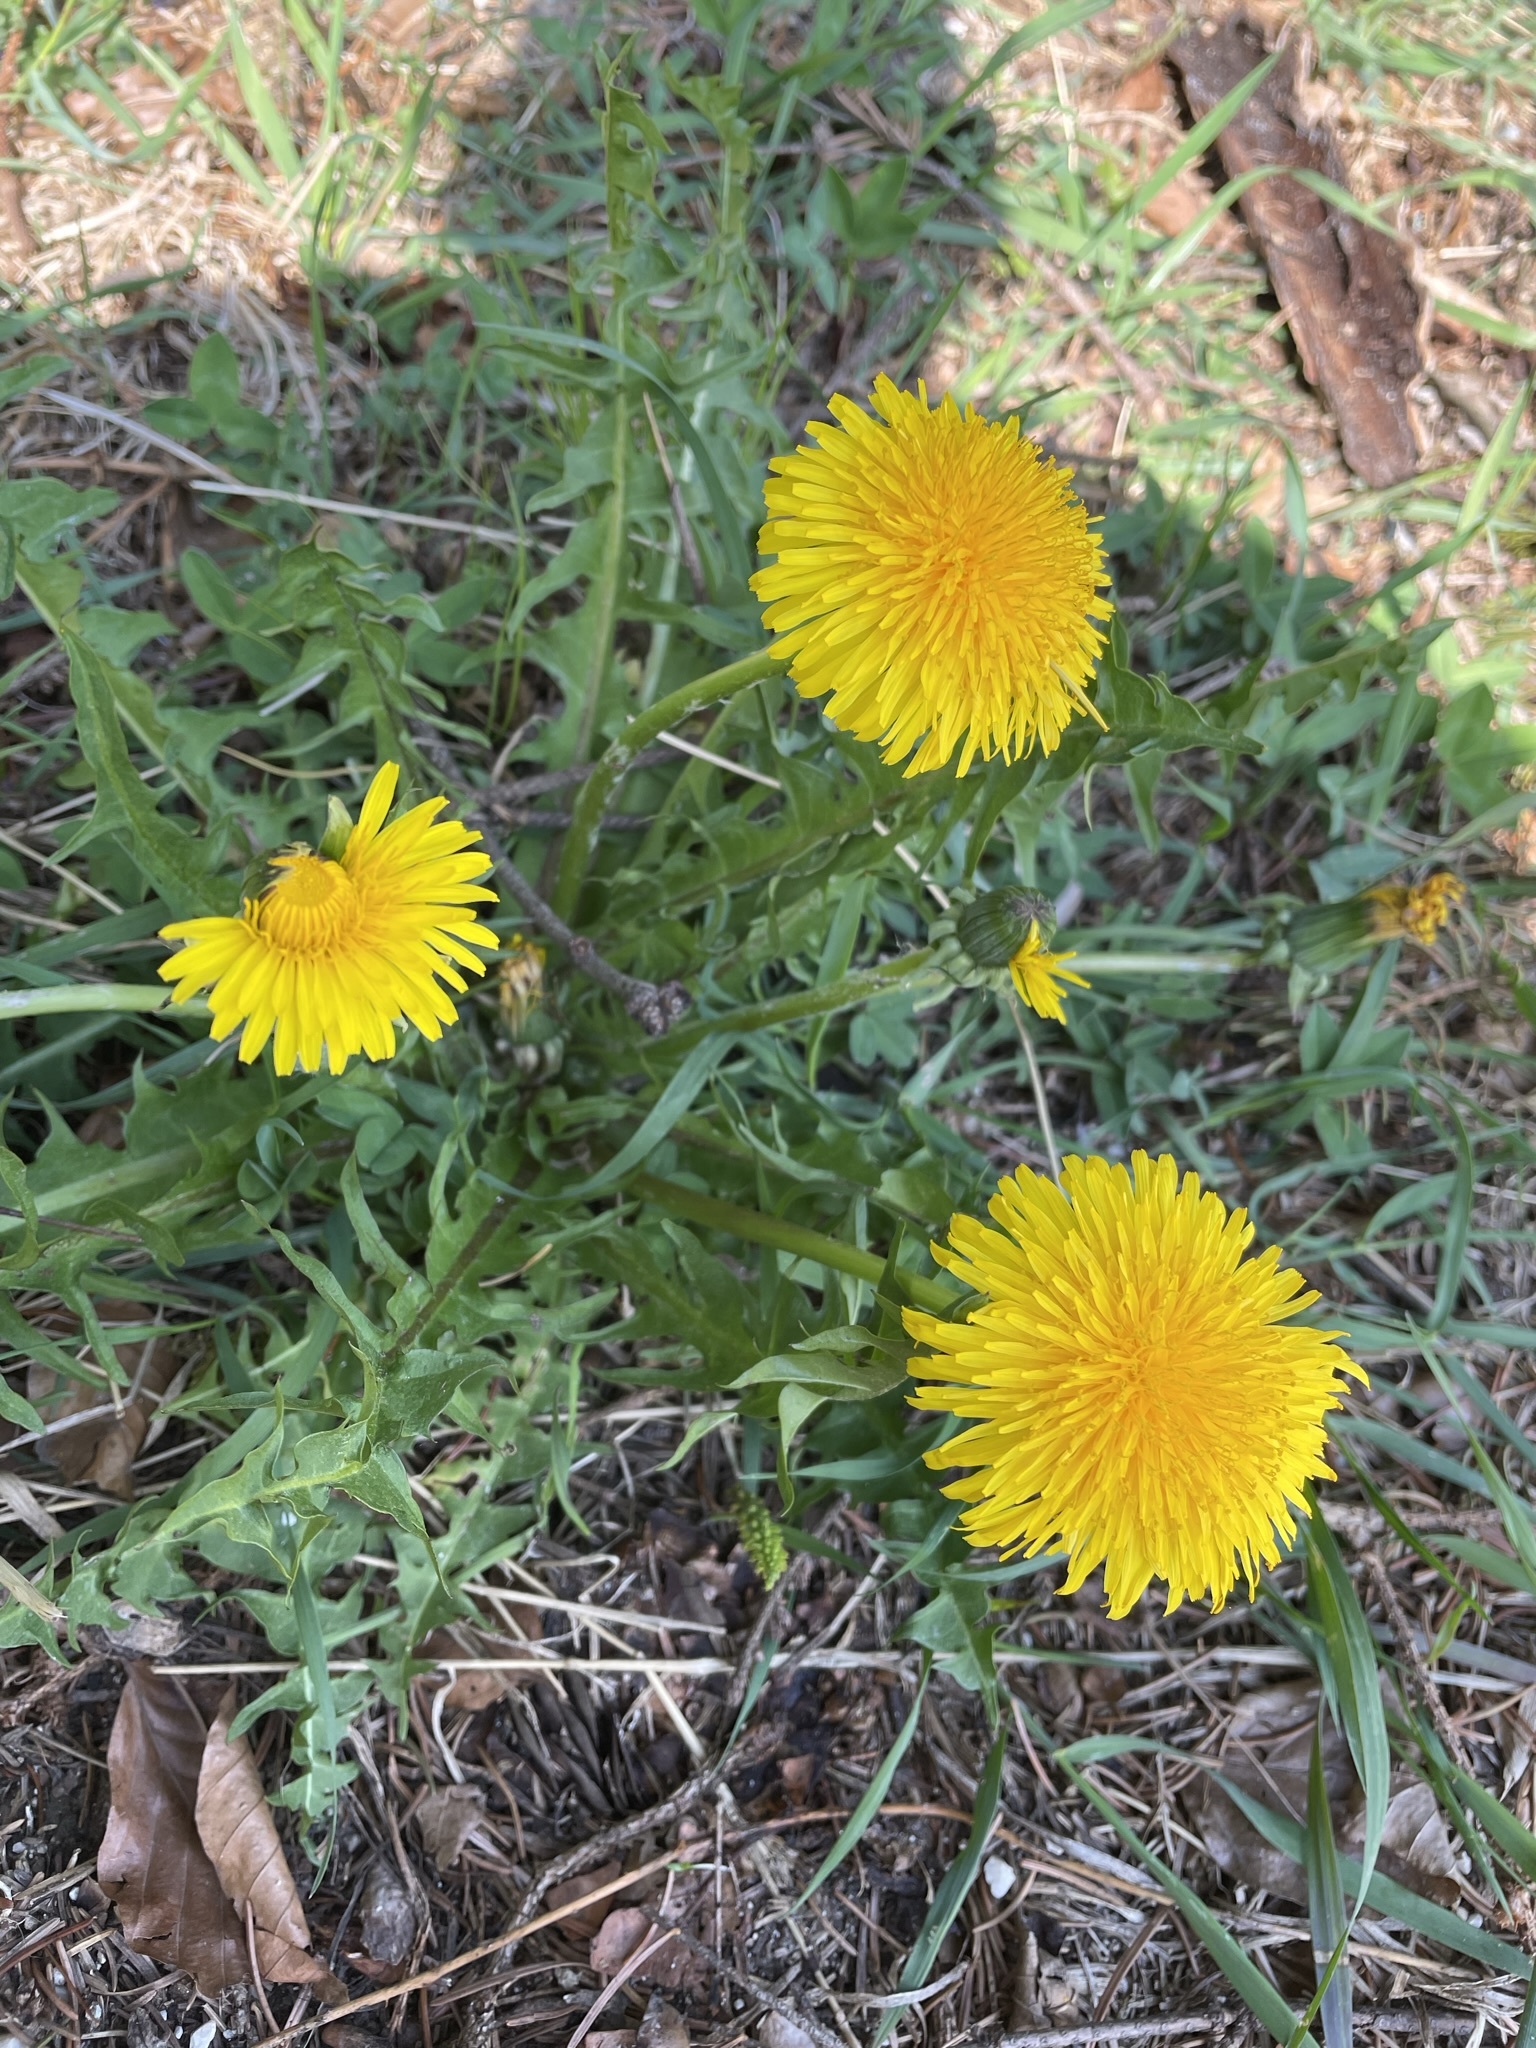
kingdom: Plantae
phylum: Tracheophyta
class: Magnoliopsida
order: Asterales
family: Asteraceae
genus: Taraxacum
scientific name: Taraxacum officinale
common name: Common dandelion
